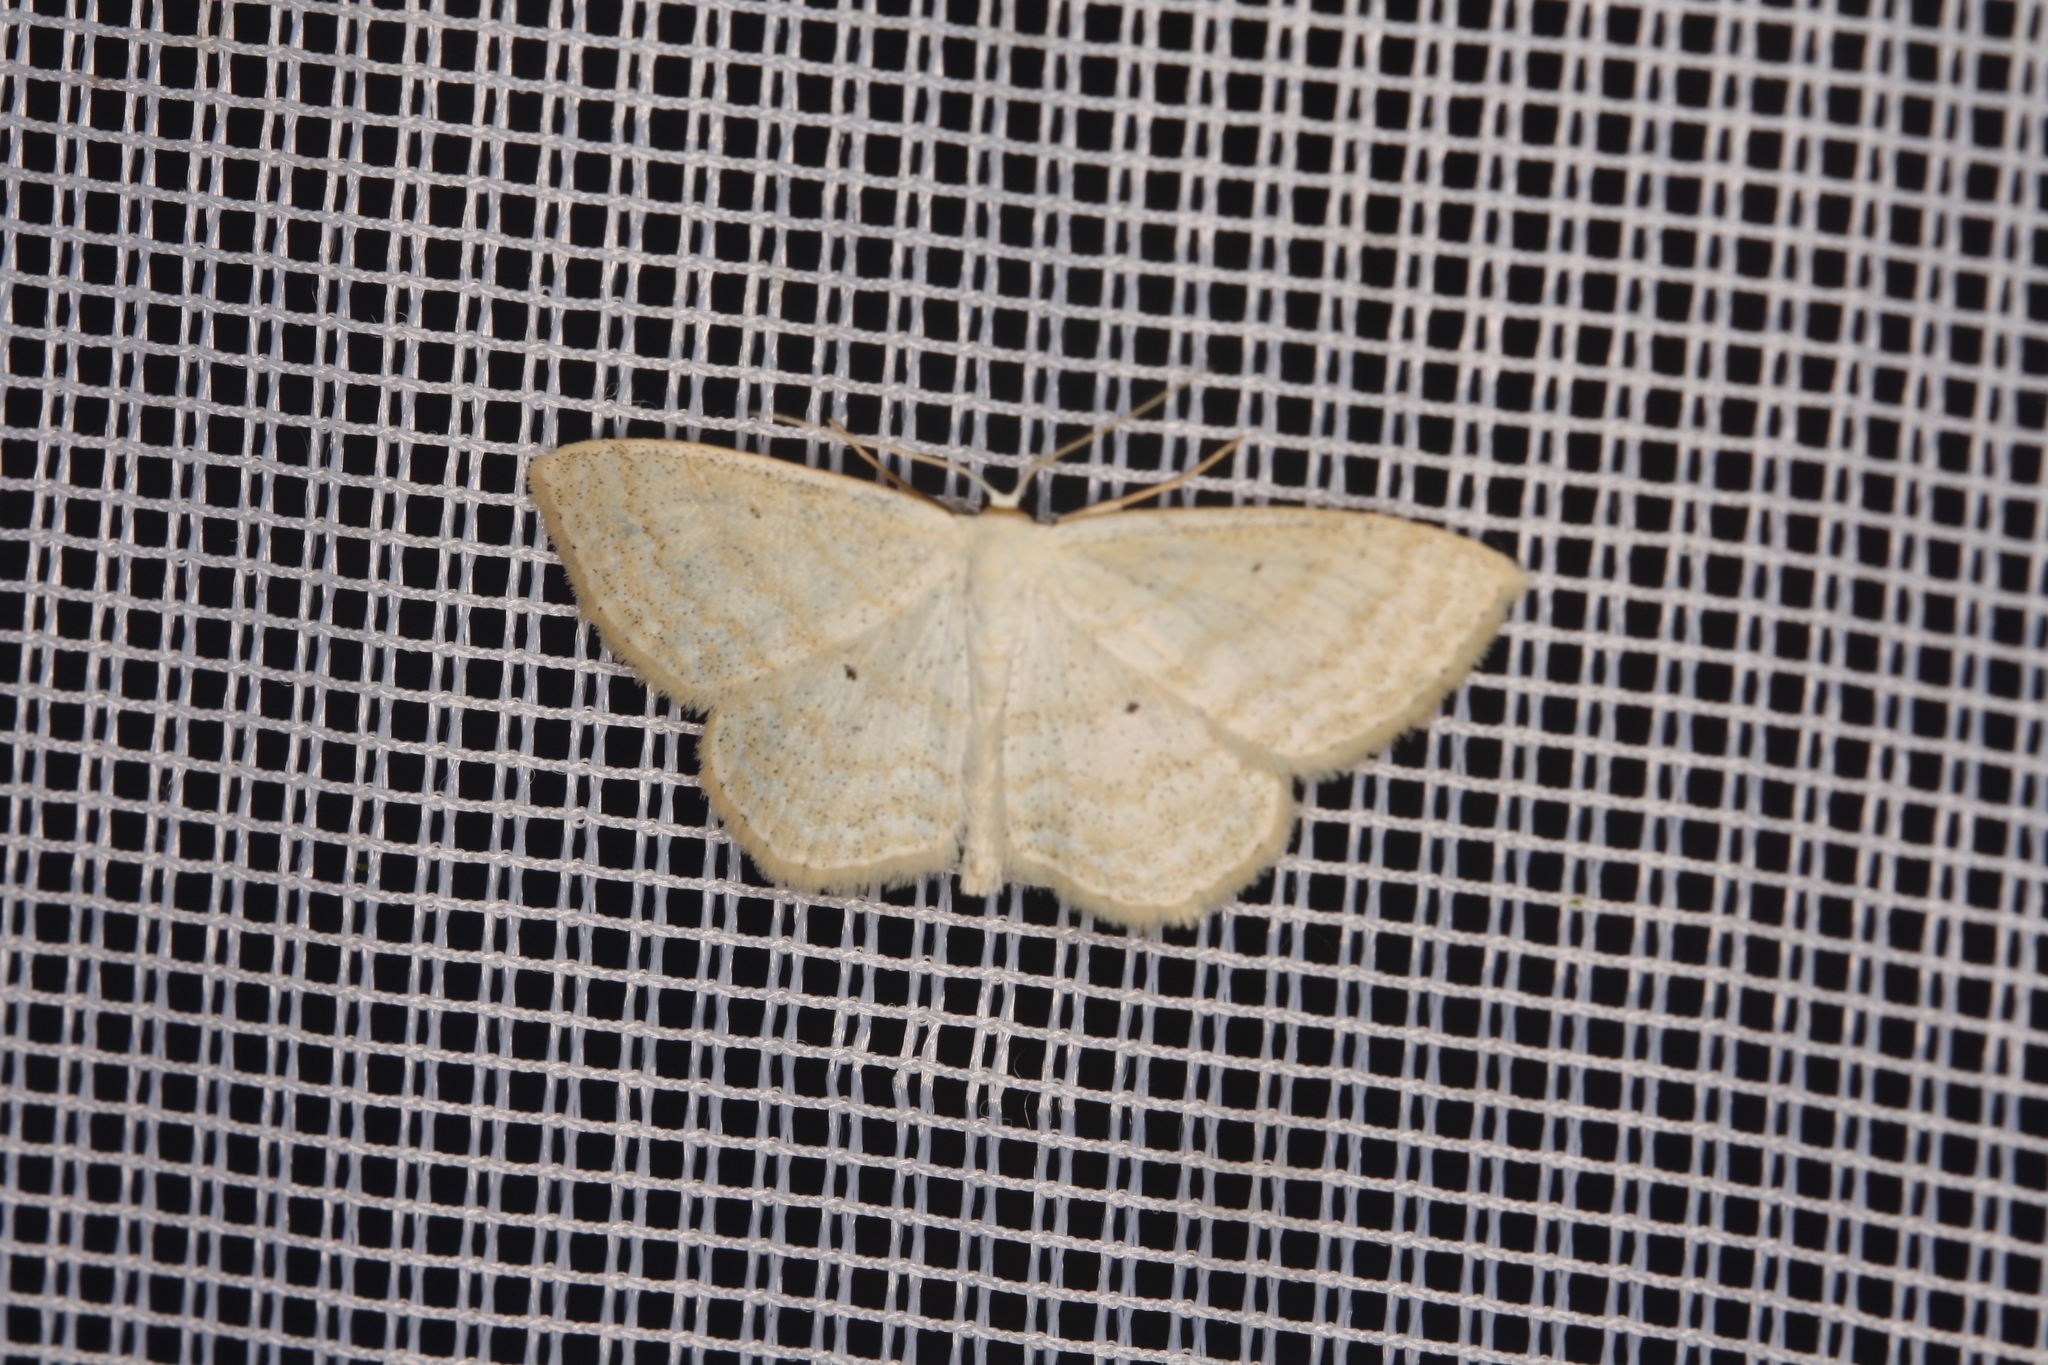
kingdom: Animalia
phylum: Arthropoda
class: Insecta
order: Lepidoptera
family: Geometridae
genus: Scopula
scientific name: Scopula immutata
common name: Lesser cream wave
